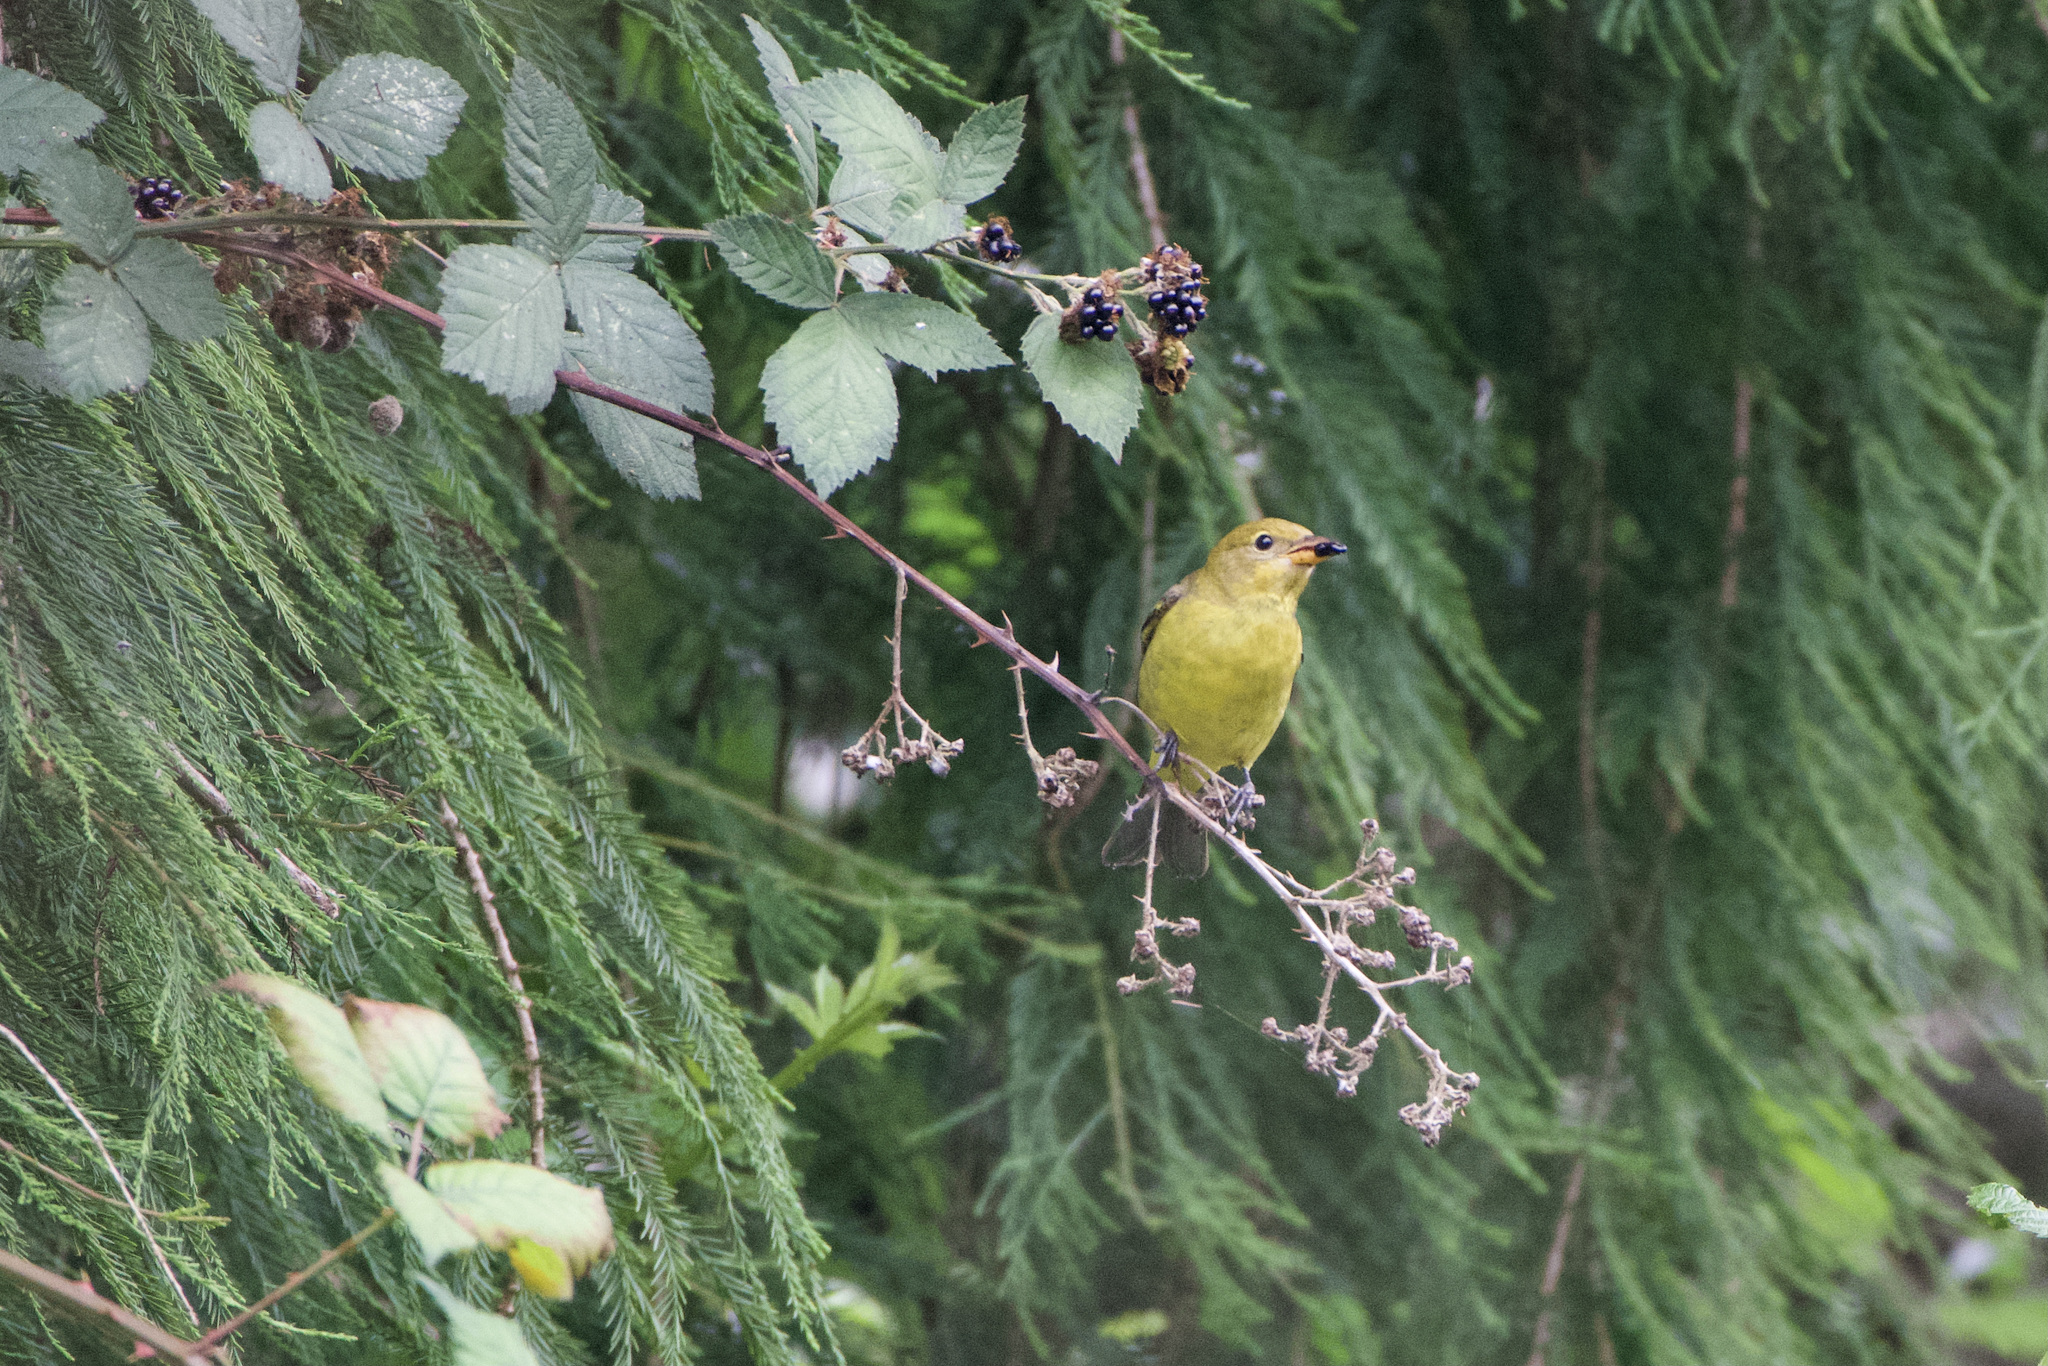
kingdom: Animalia
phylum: Chordata
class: Aves
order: Passeriformes
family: Cardinalidae
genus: Piranga
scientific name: Piranga ludoviciana
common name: Western tanager
